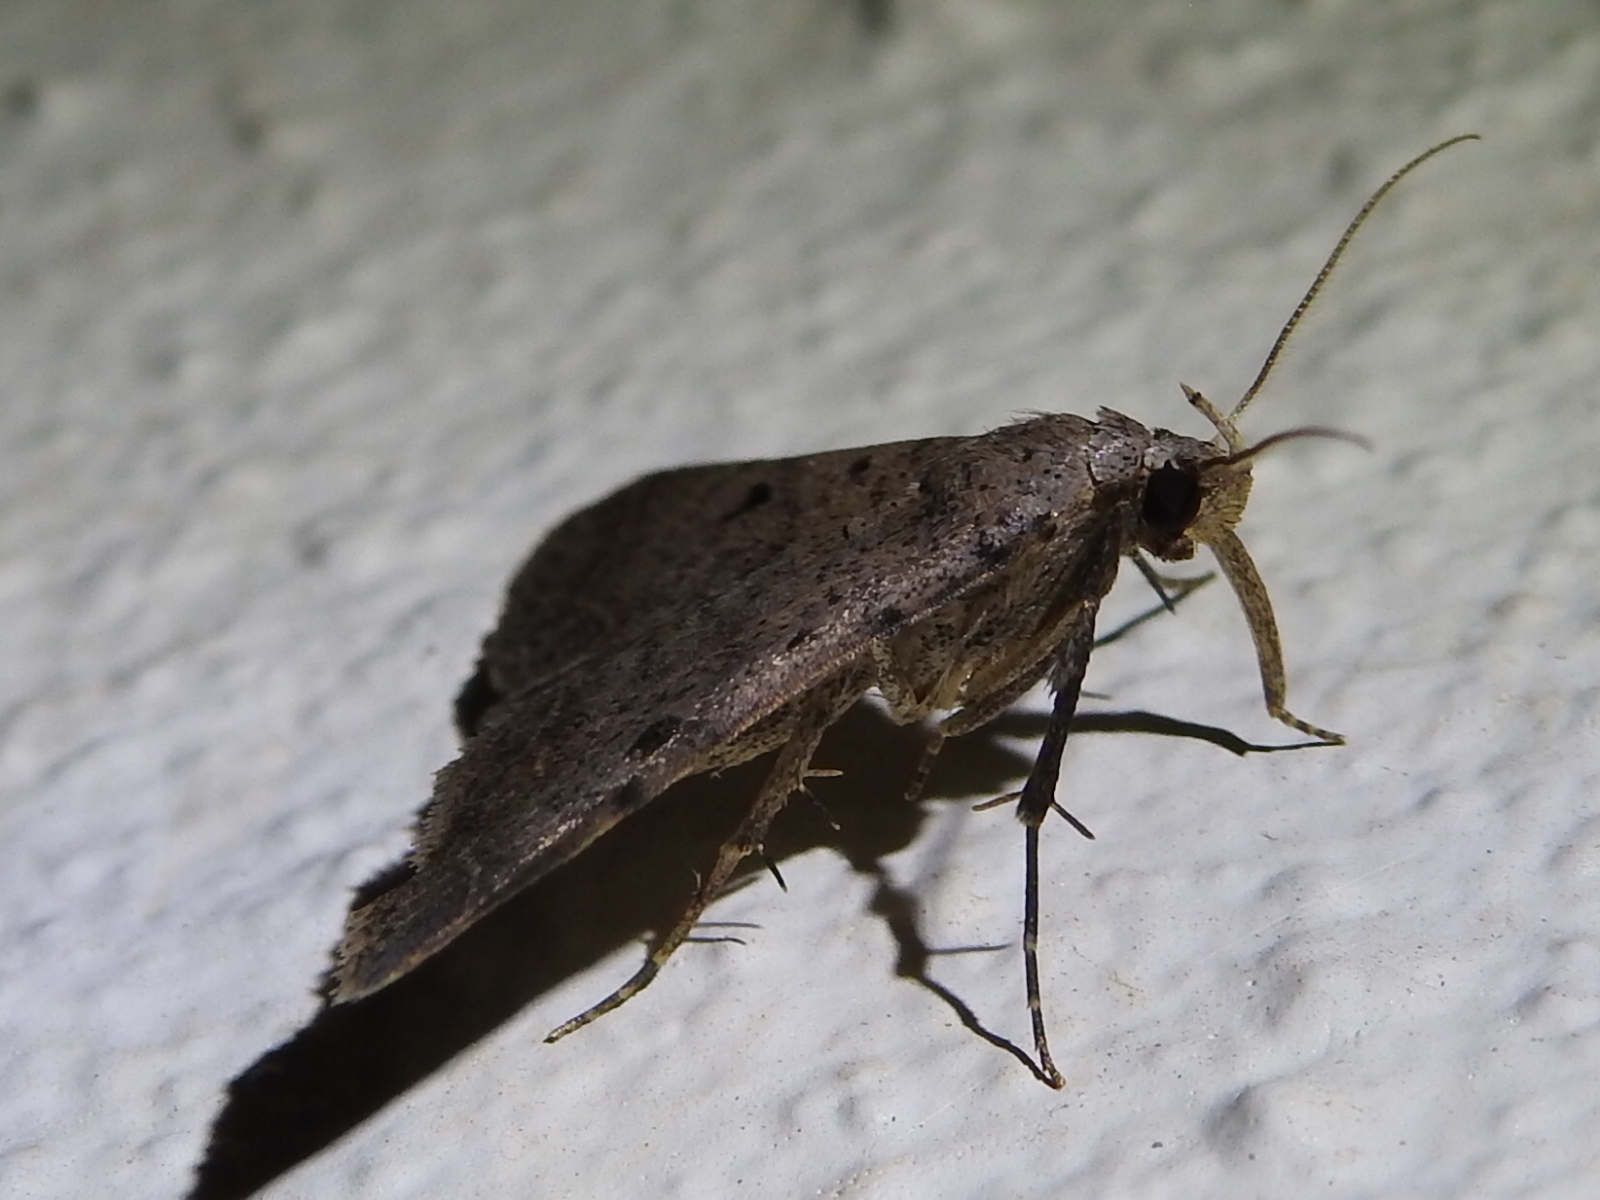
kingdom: Animalia
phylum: Arthropoda
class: Insecta
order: Lepidoptera
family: Erebidae
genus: Bleptina
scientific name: Bleptina caradrinalis
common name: Bent-winged owlet
